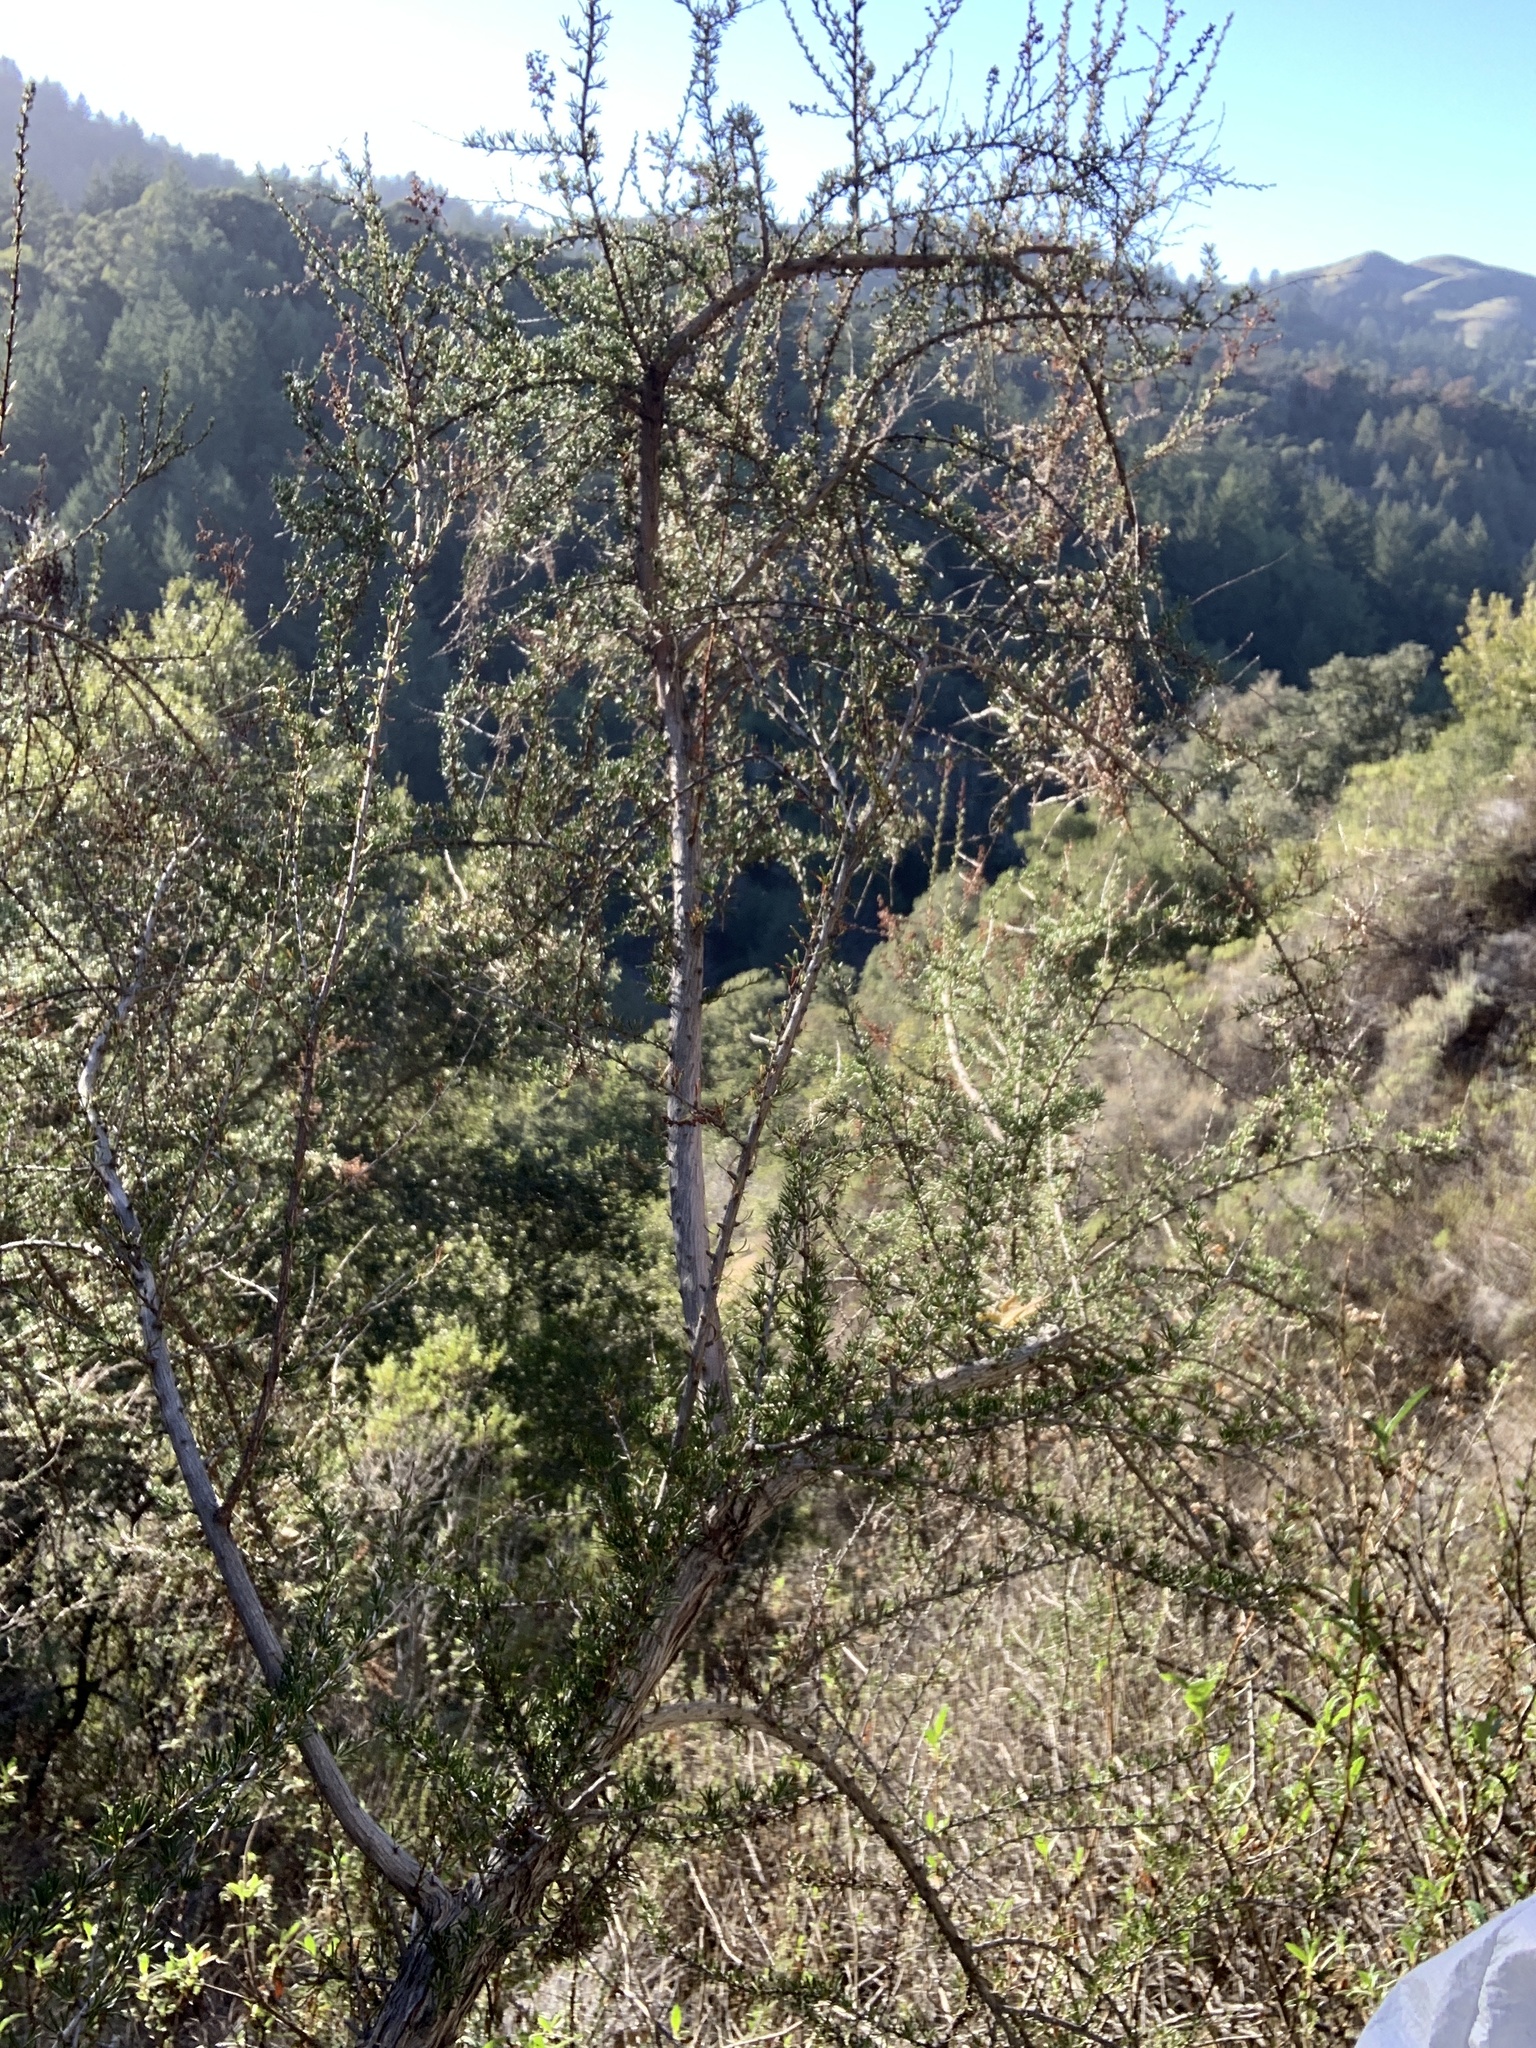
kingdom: Plantae
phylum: Tracheophyta
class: Magnoliopsida
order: Rosales
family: Rosaceae
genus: Adenostoma
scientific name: Adenostoma fasciculatum
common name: Chamise
